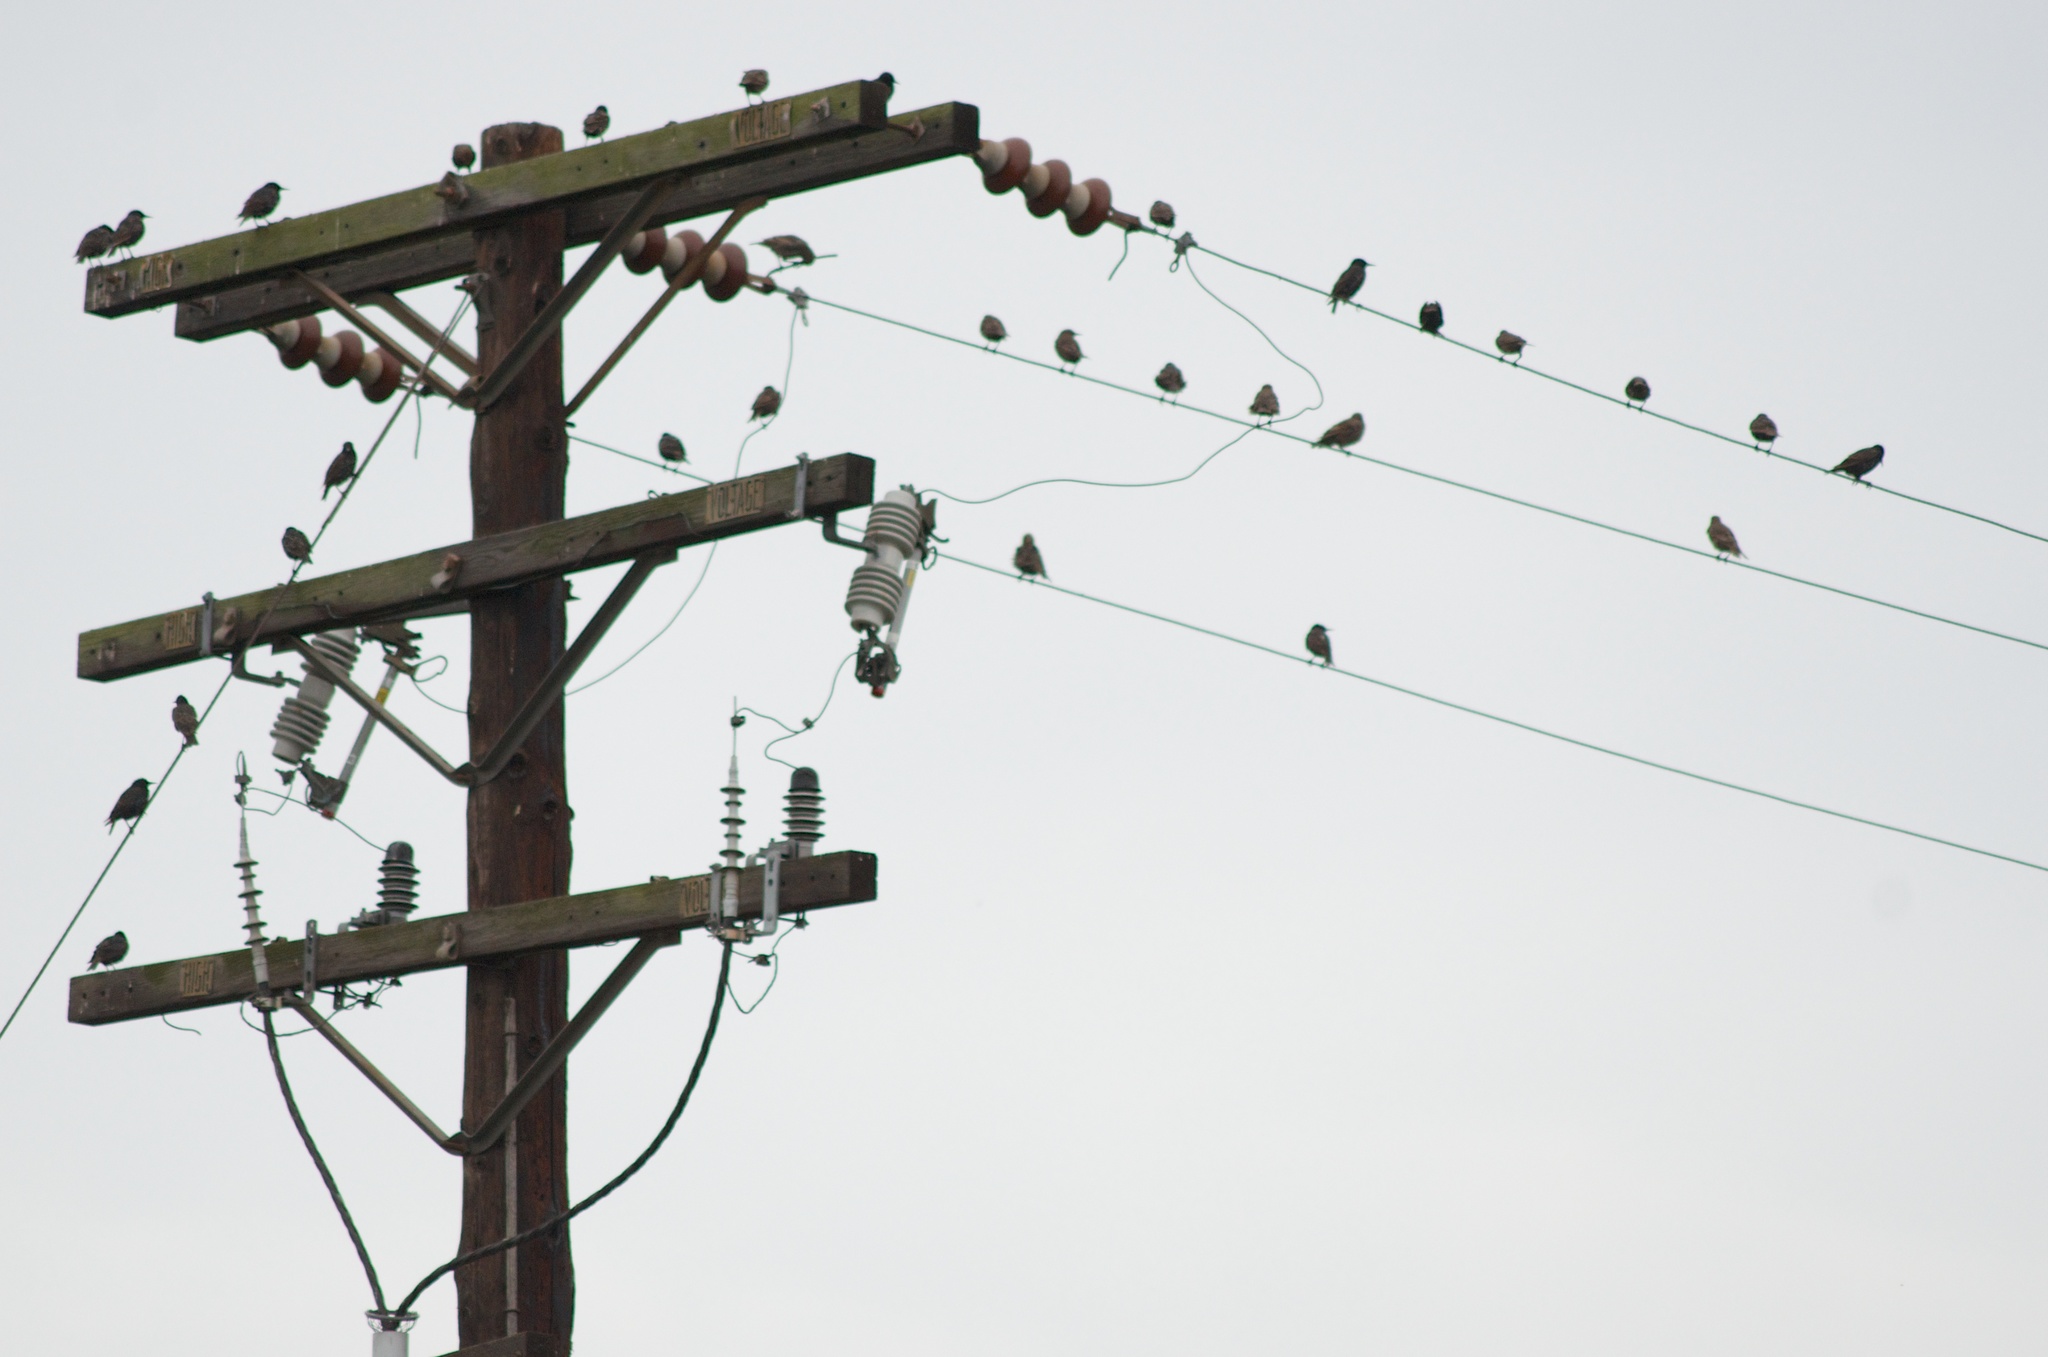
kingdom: Animalia
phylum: Chordata
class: Aves
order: Passeriformes
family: Sturnidae
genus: Sturnus
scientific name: Sturnus vulgaris
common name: Common starling
